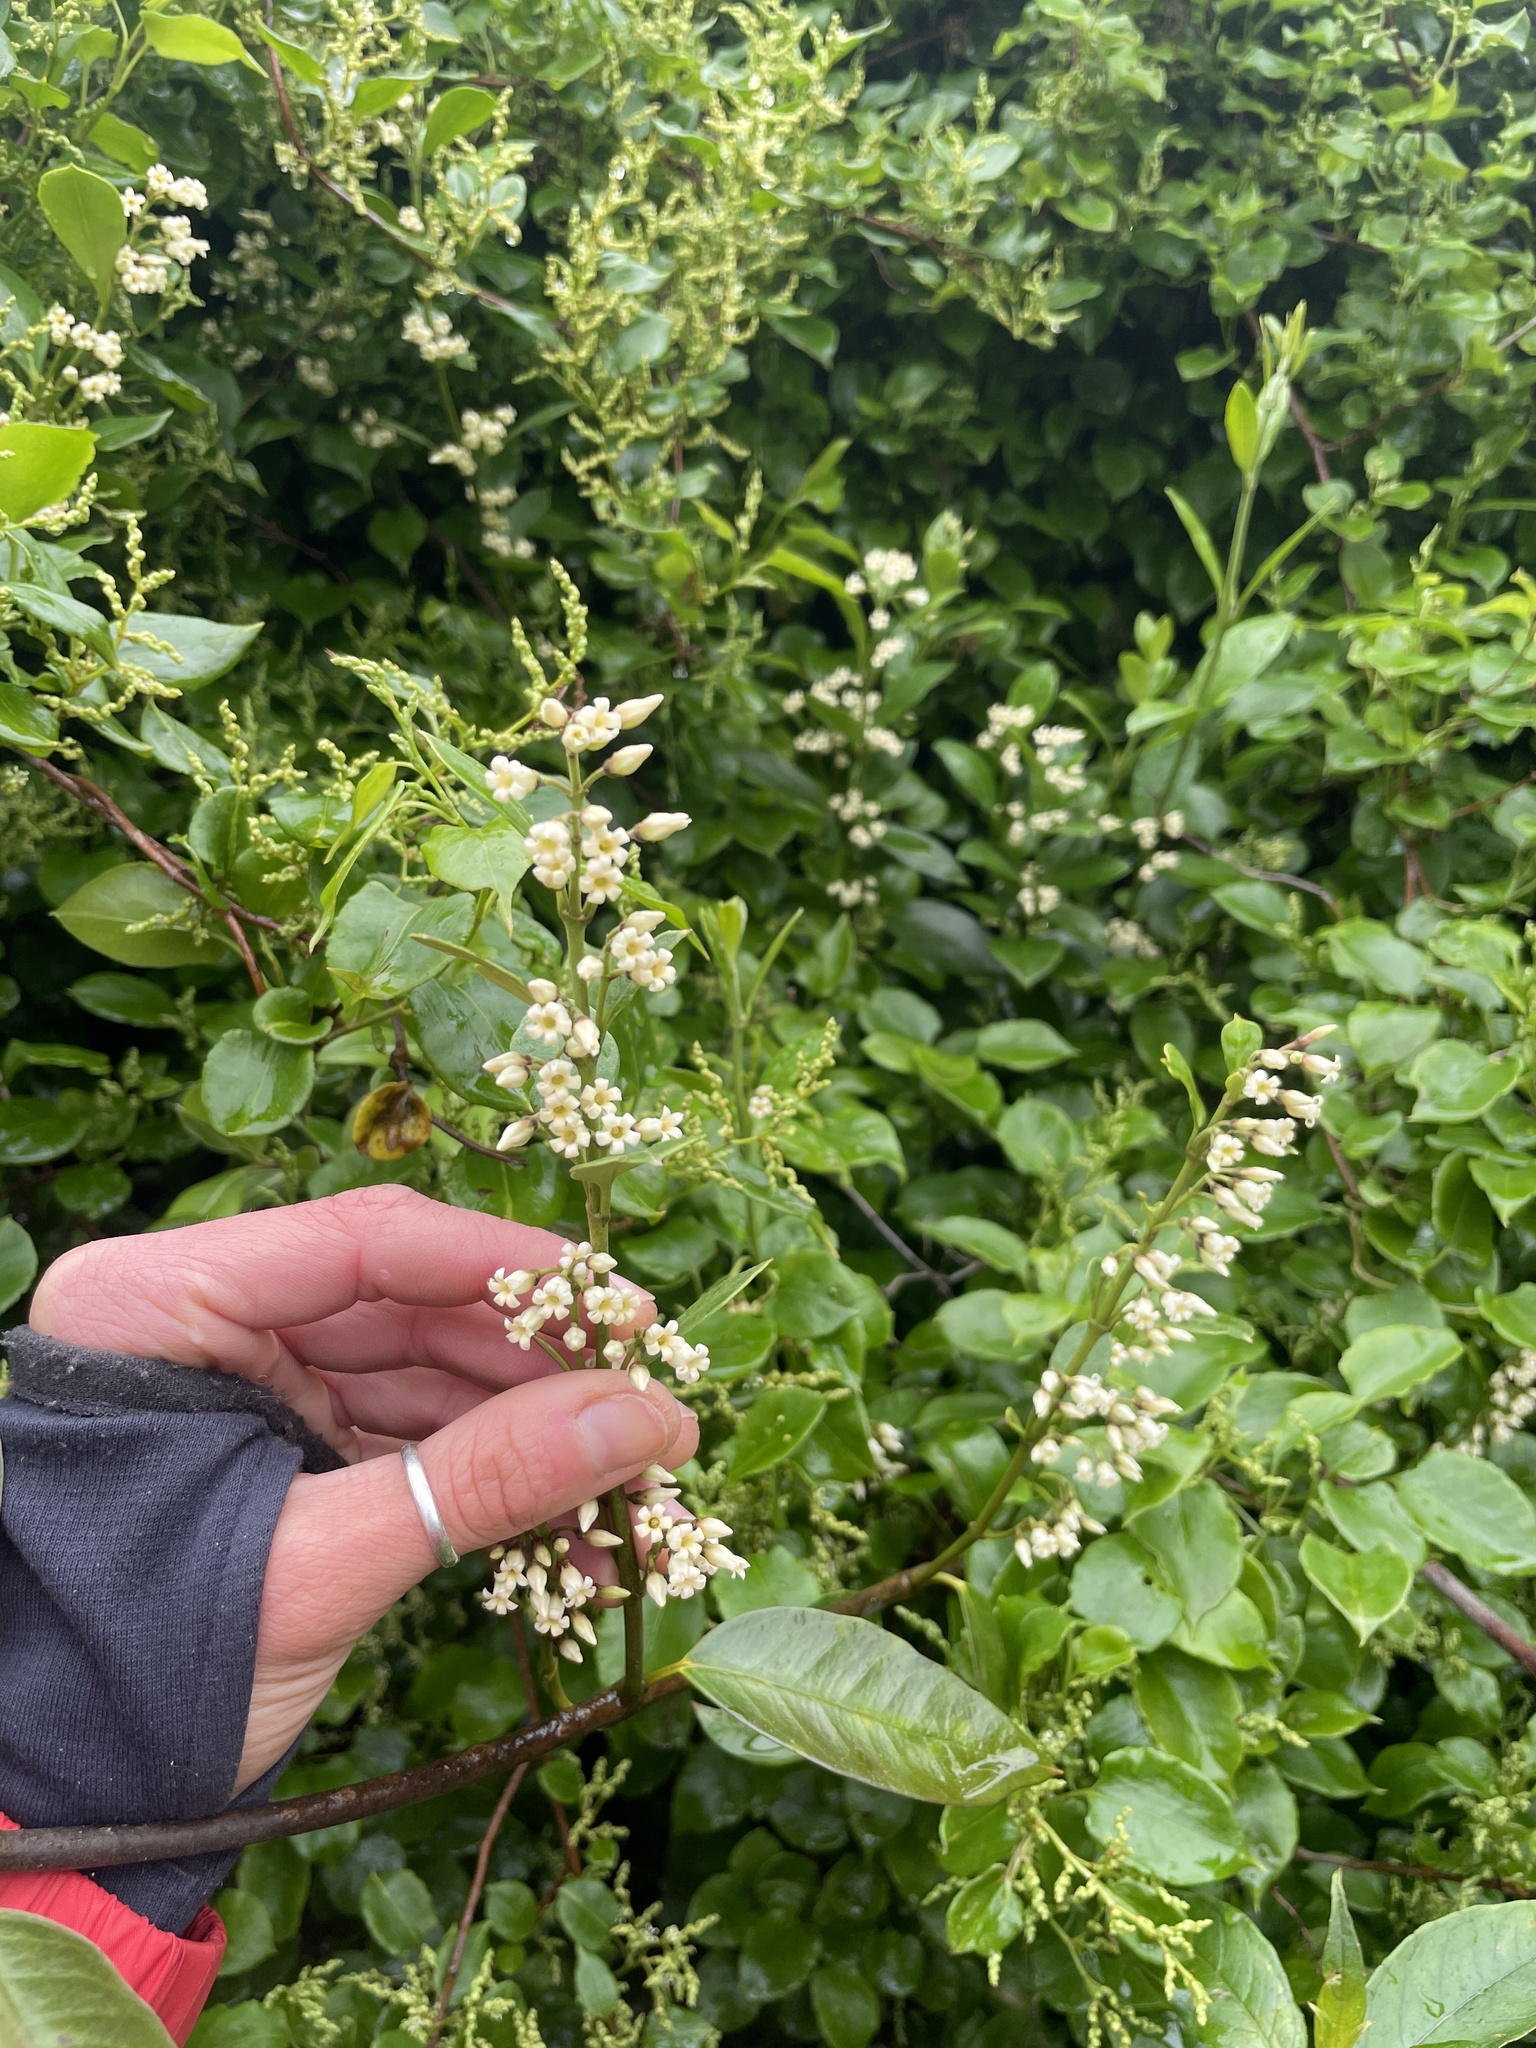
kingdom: Plantae
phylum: Tracheophyta
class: Magnoliopsida
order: Gentianales
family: Apocynaceae
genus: Parsonsia
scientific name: Parsonsia heterophylla
